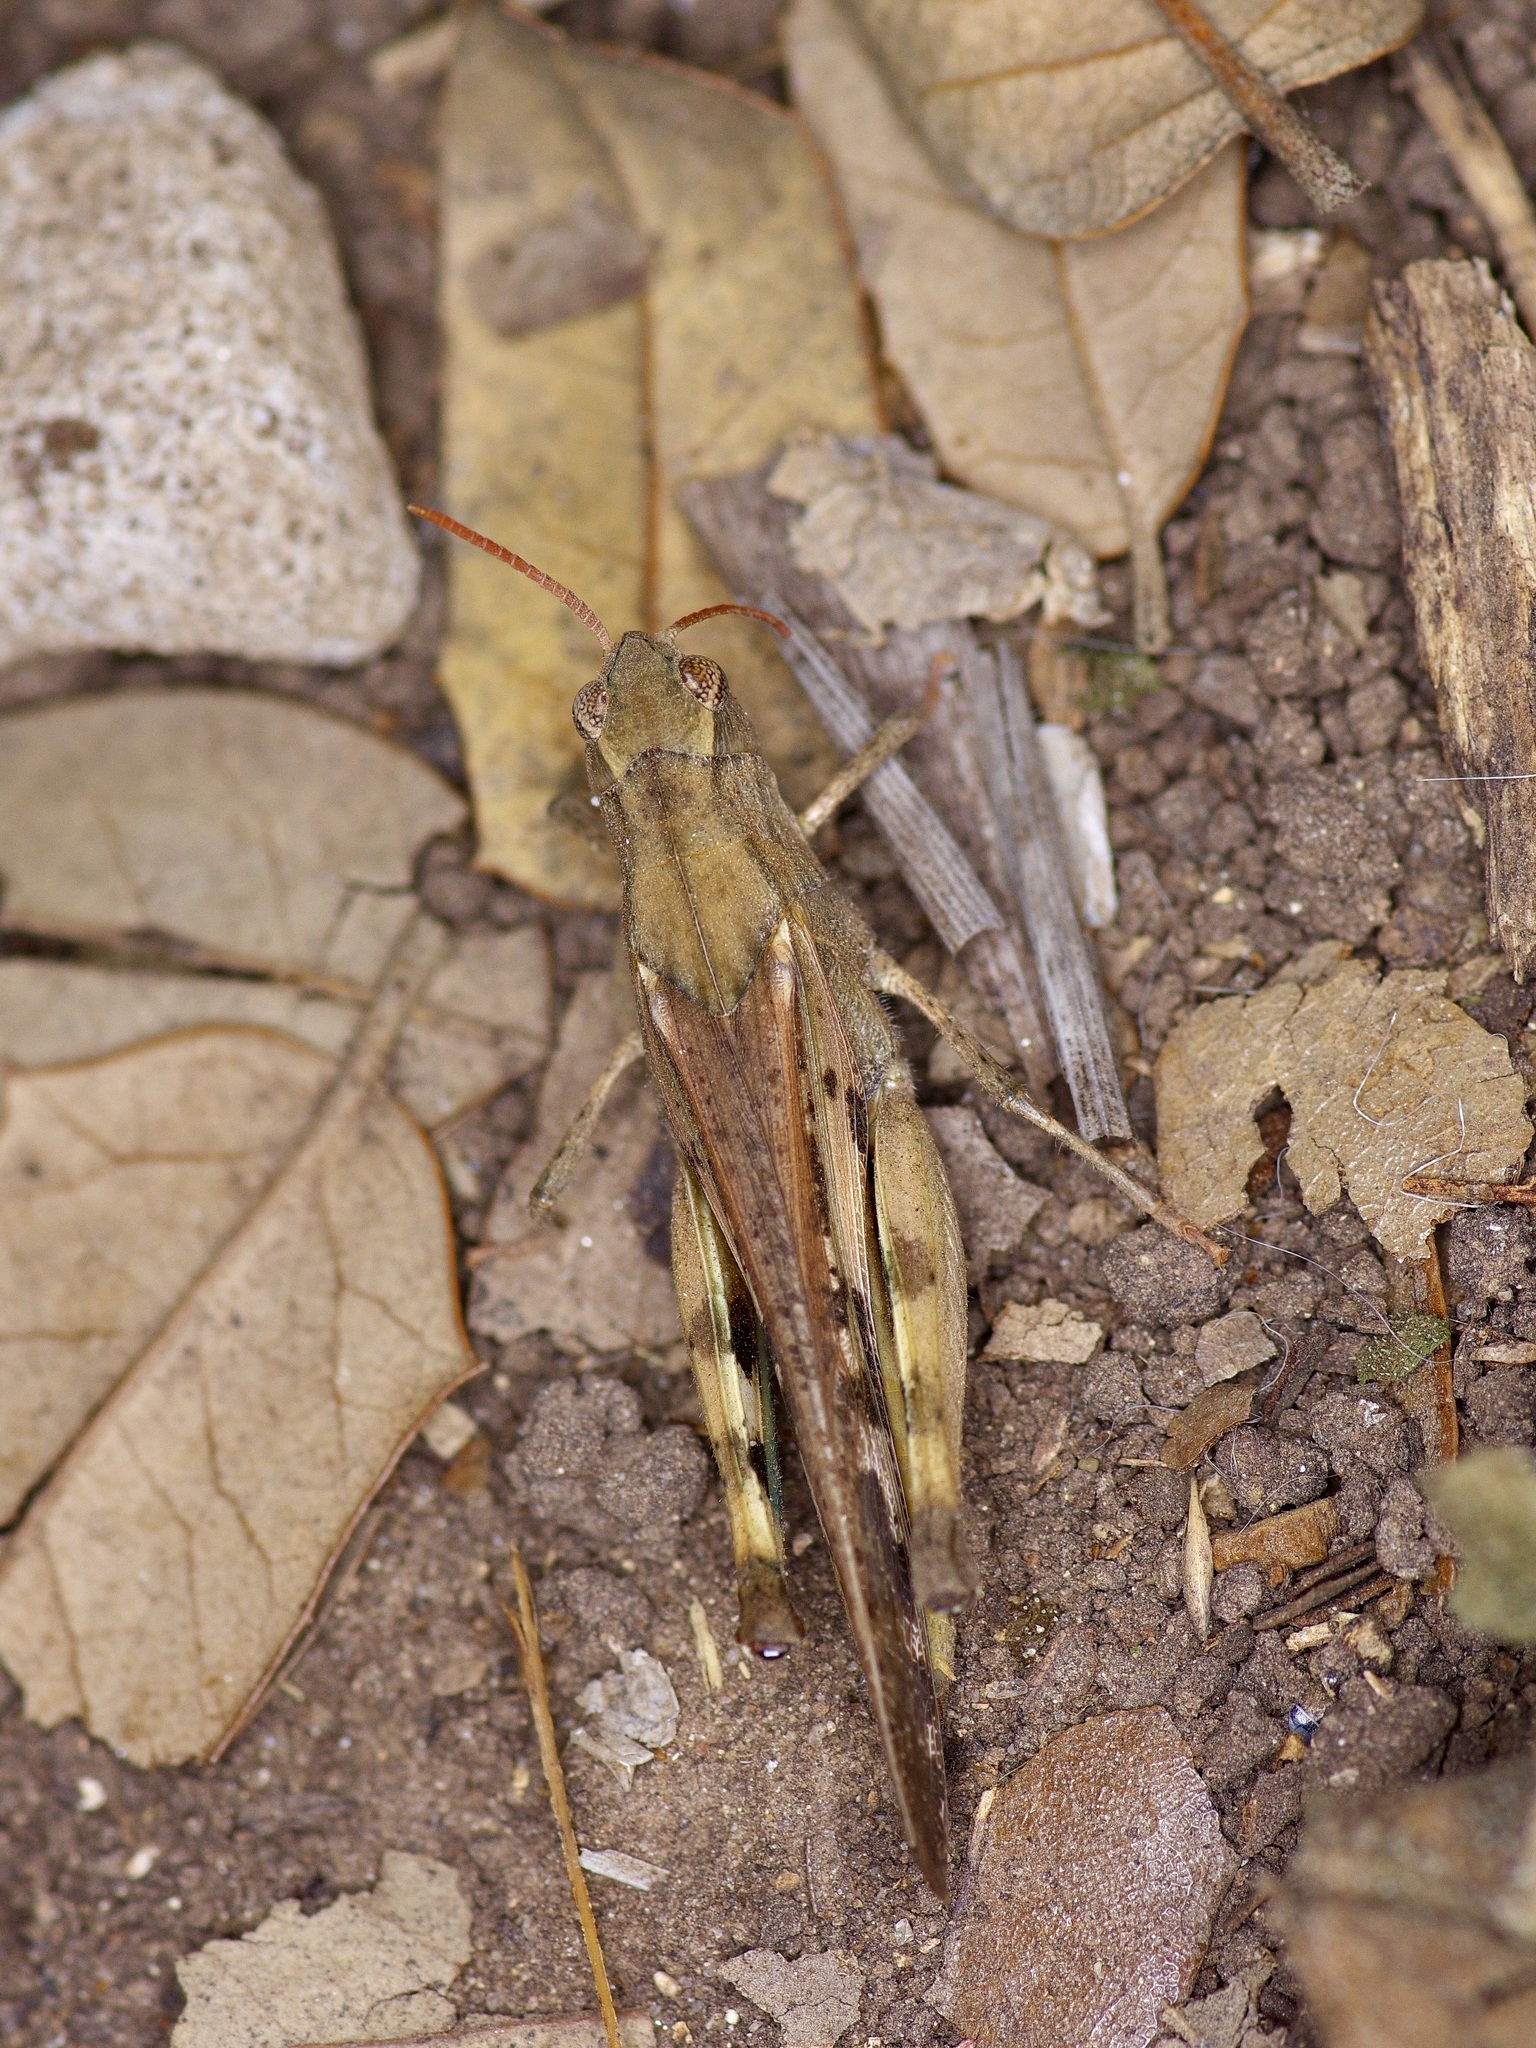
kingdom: Animalia
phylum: Arthropoda
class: Insecta
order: Orthoptera
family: Acrididae
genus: Chortophaga
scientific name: Chortophaga viridifasciata
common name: Green-striped grasshopper
